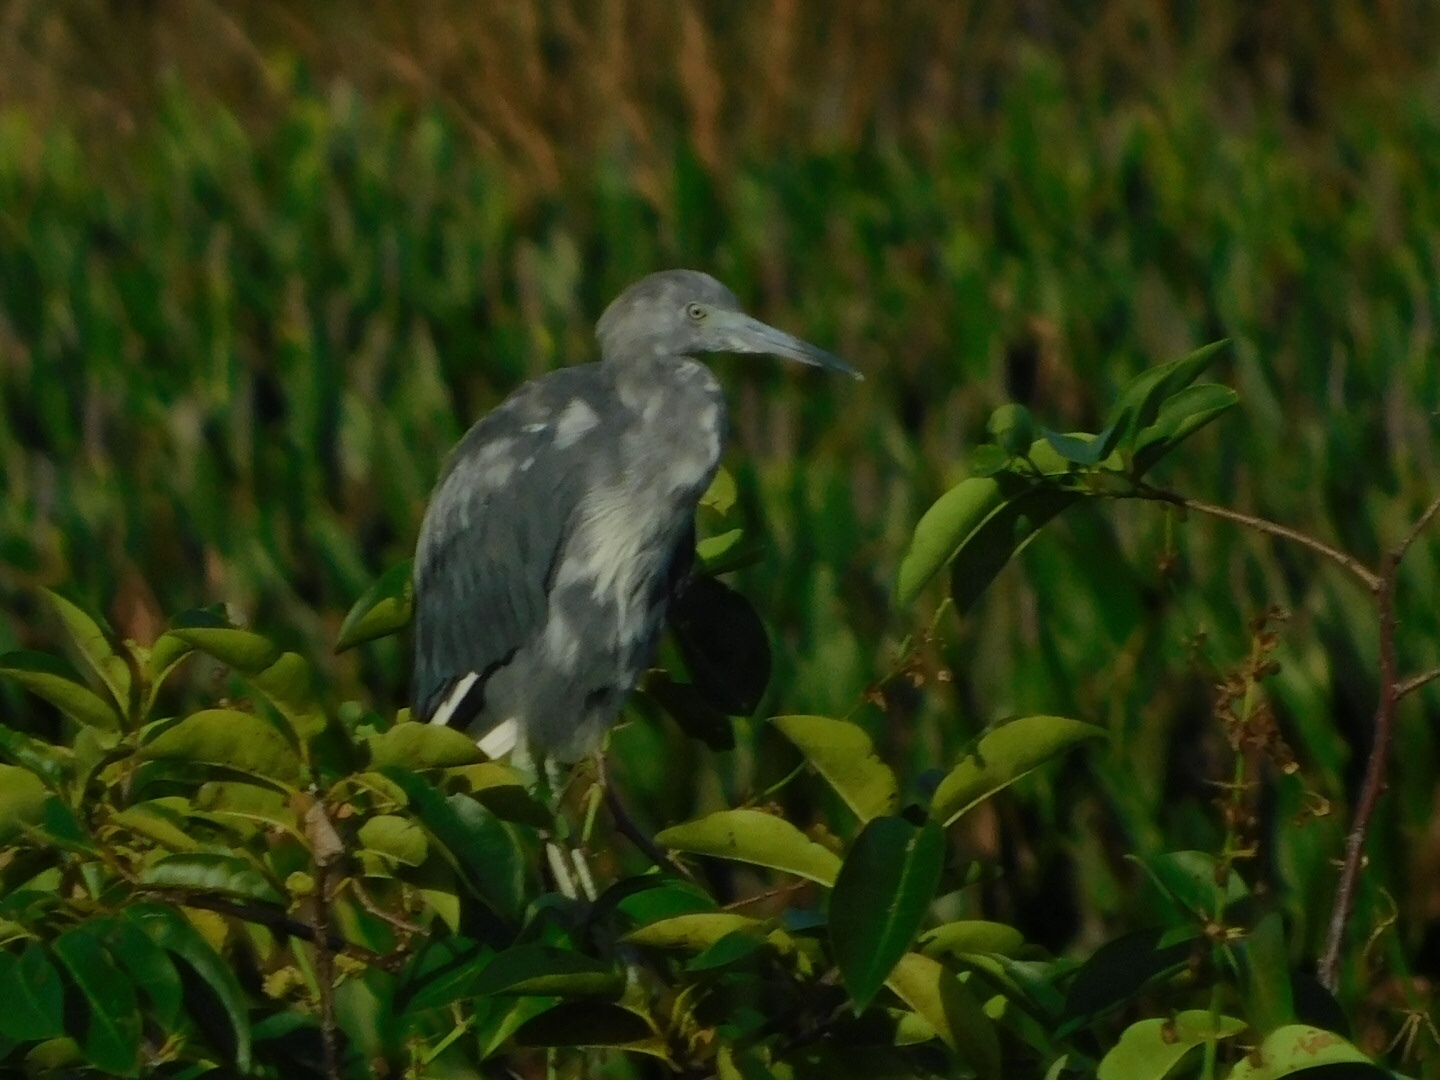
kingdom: Animalia
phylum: Chordata
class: Aves
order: Pelecaniformes
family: Ardeidae
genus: Egretta
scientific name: Egretta caerulea
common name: Little blue heron
